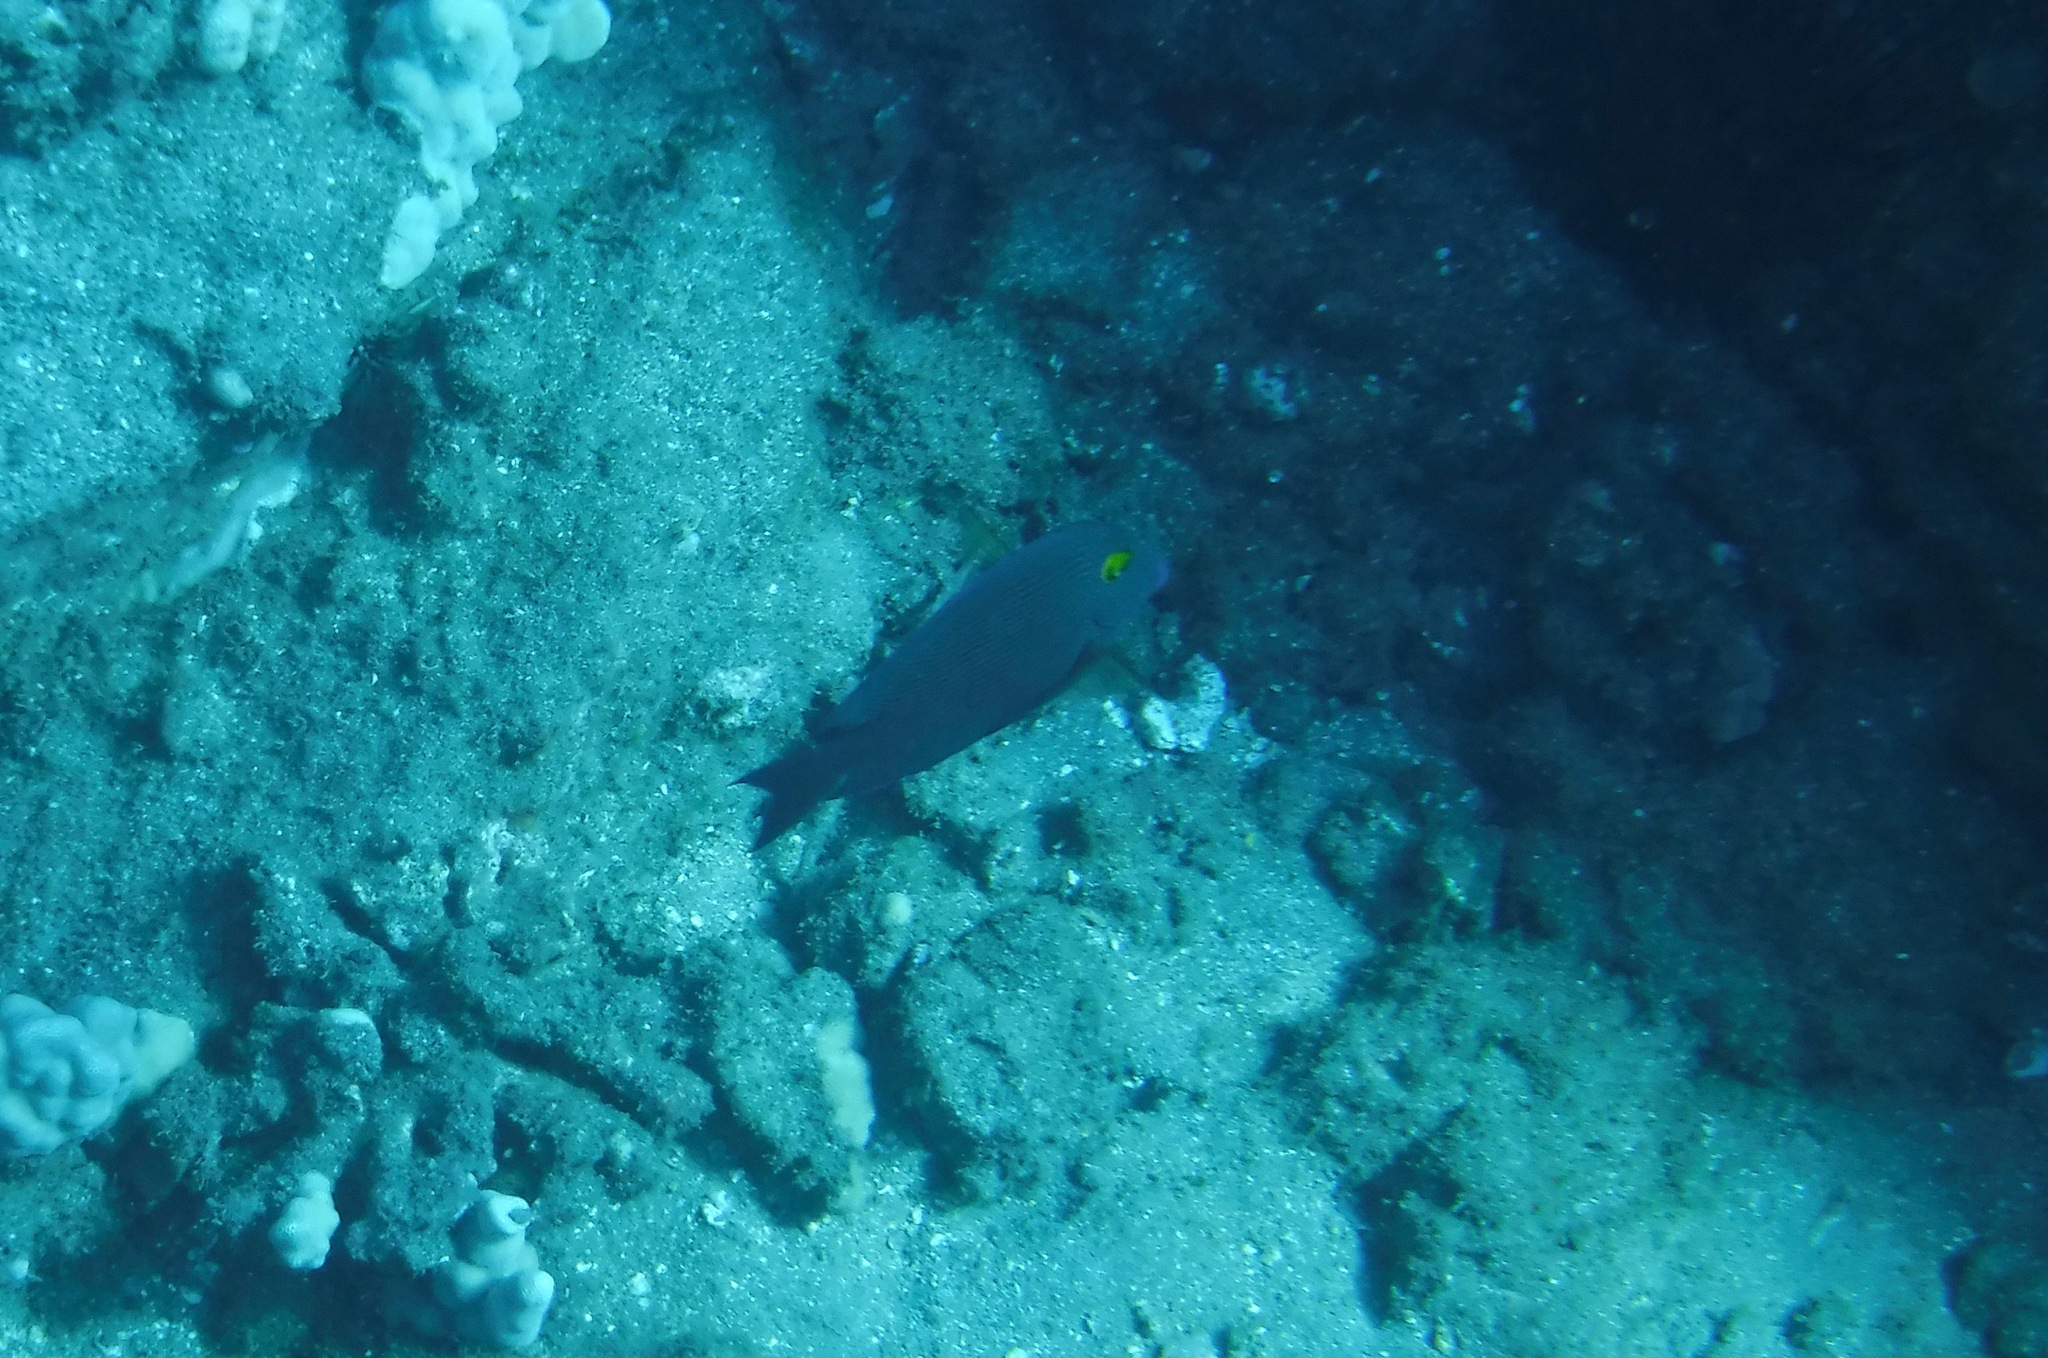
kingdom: Animalia
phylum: Chordata
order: Perciformes
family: Acanthuridae
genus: Ctenochaetus
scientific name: Ctenochaetus strigosus
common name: Bristletoothed surgeonfish
